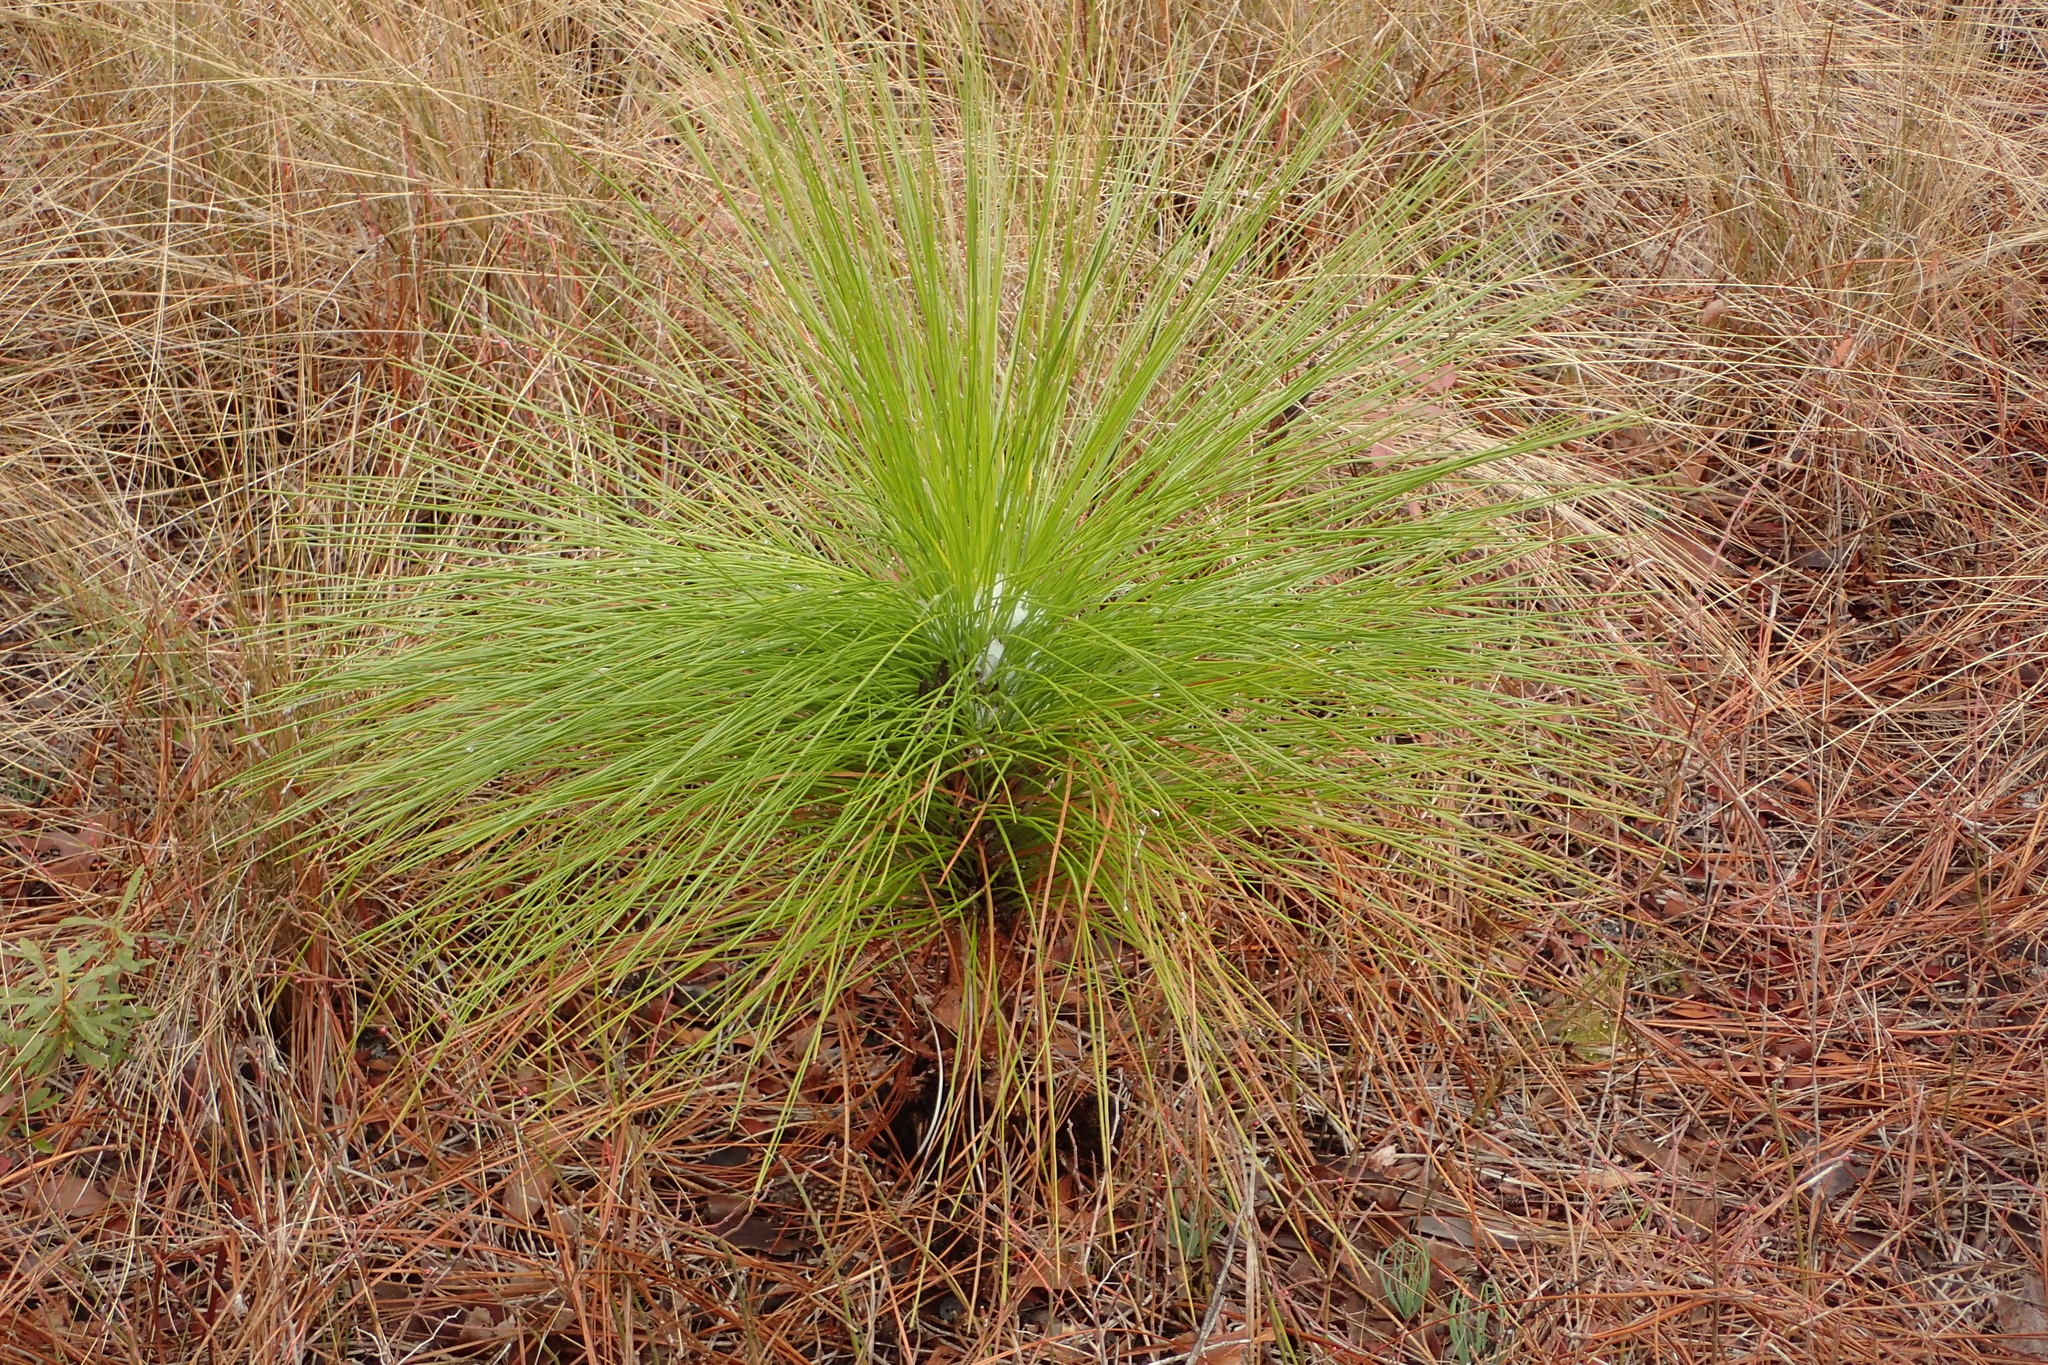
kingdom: Plantae
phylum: Tracheophyta
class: Pinopsida
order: Pinales
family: Pinaceae
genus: Pinus
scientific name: Pinus palustris
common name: Longleaf pine
